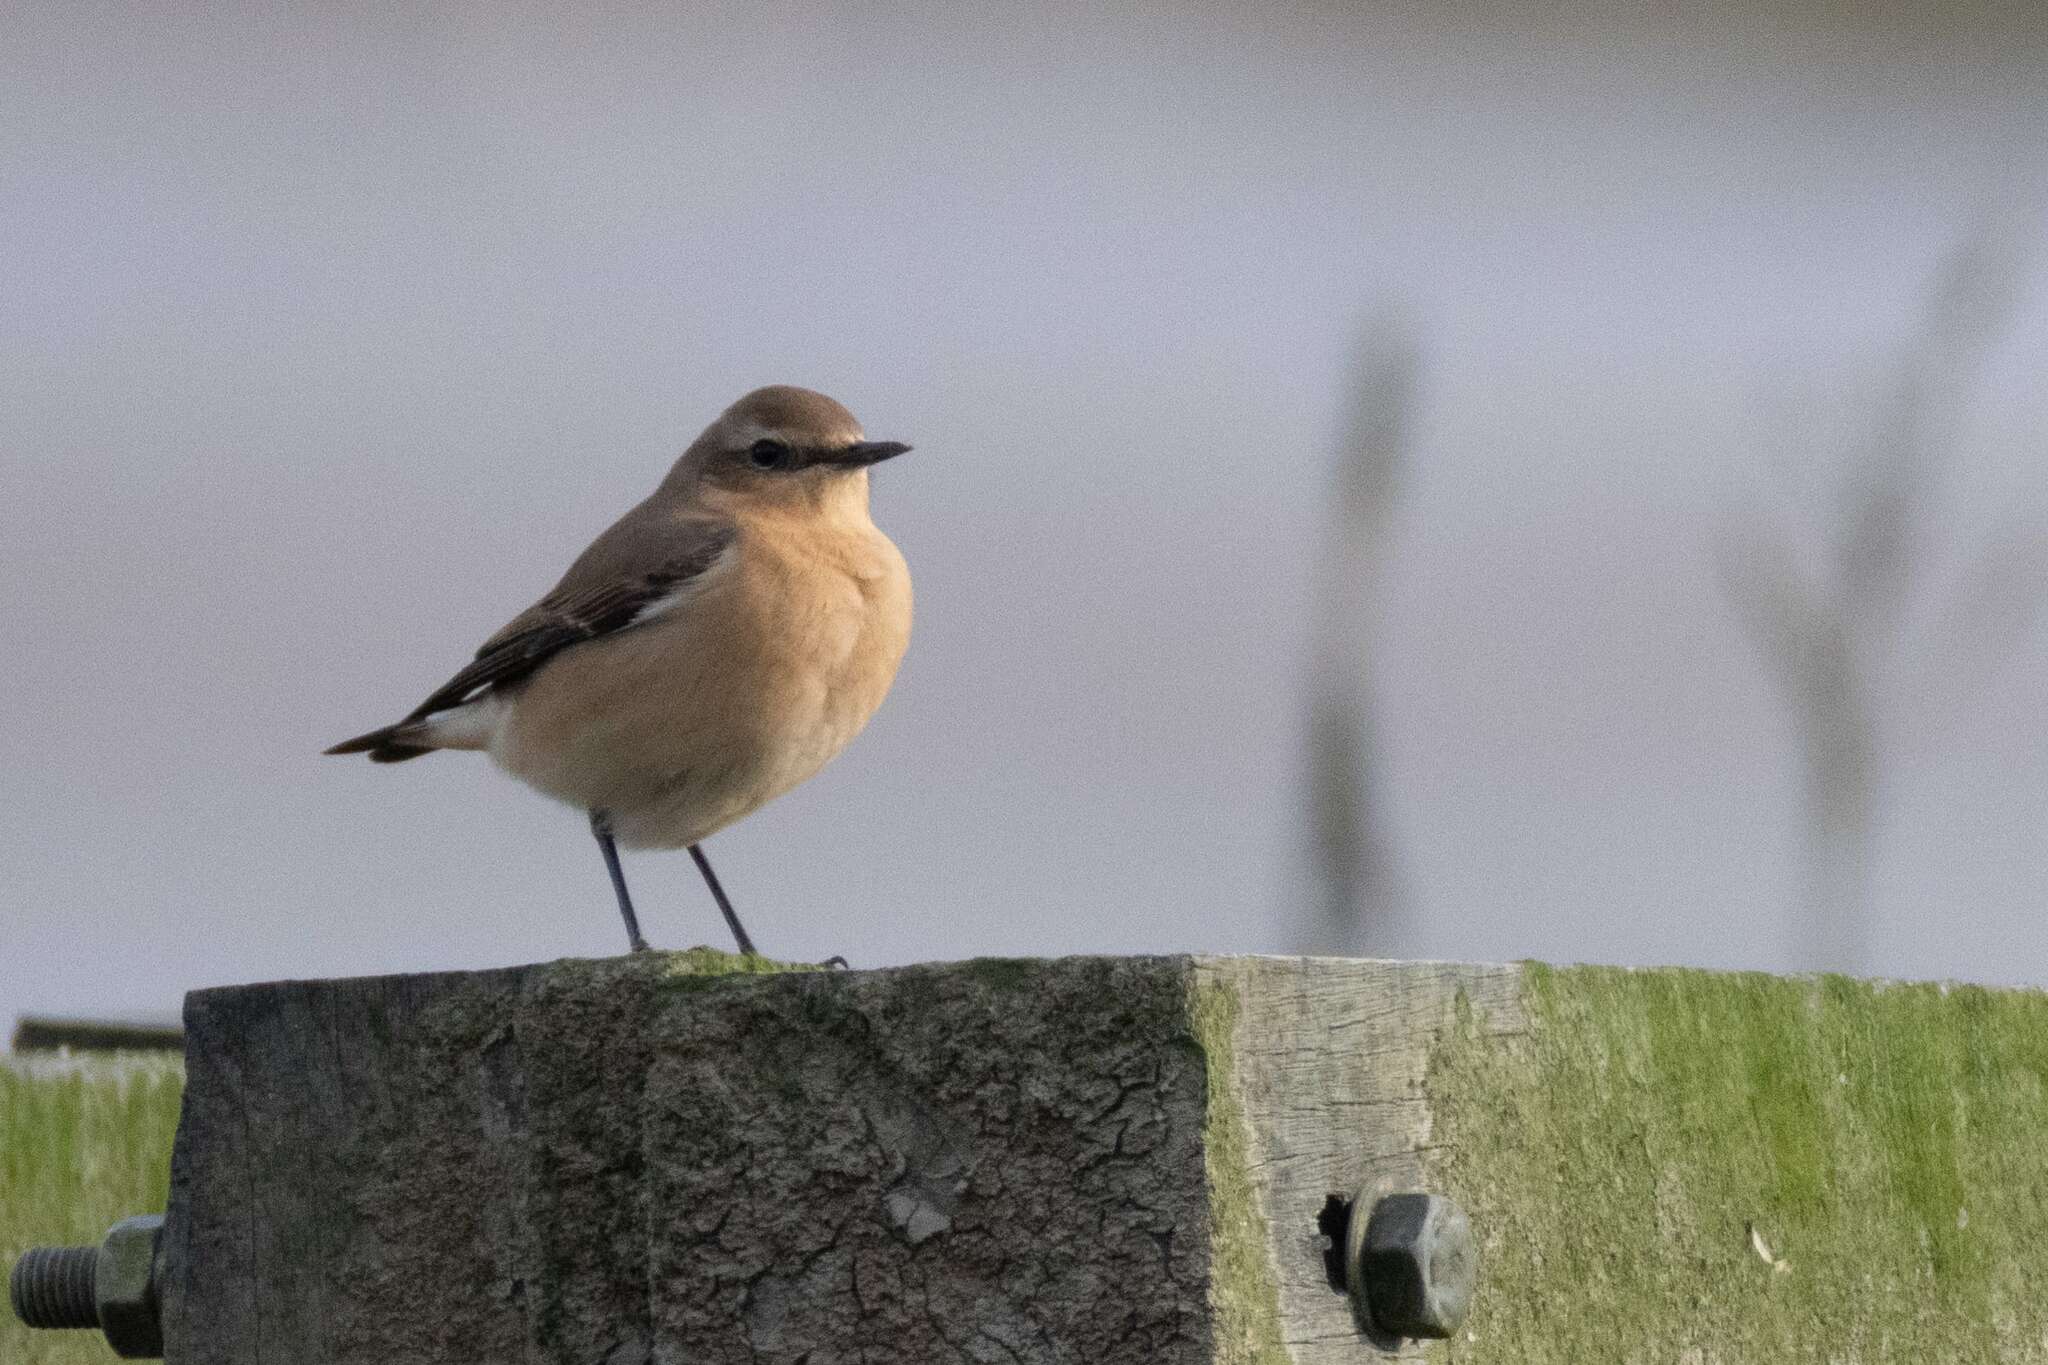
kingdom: Animalia
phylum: Chordata
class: Aves
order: Passeriformes
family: Muscicapidae
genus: Oenanthe
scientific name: Oenanthe oenanthe
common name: Northern wheatear
